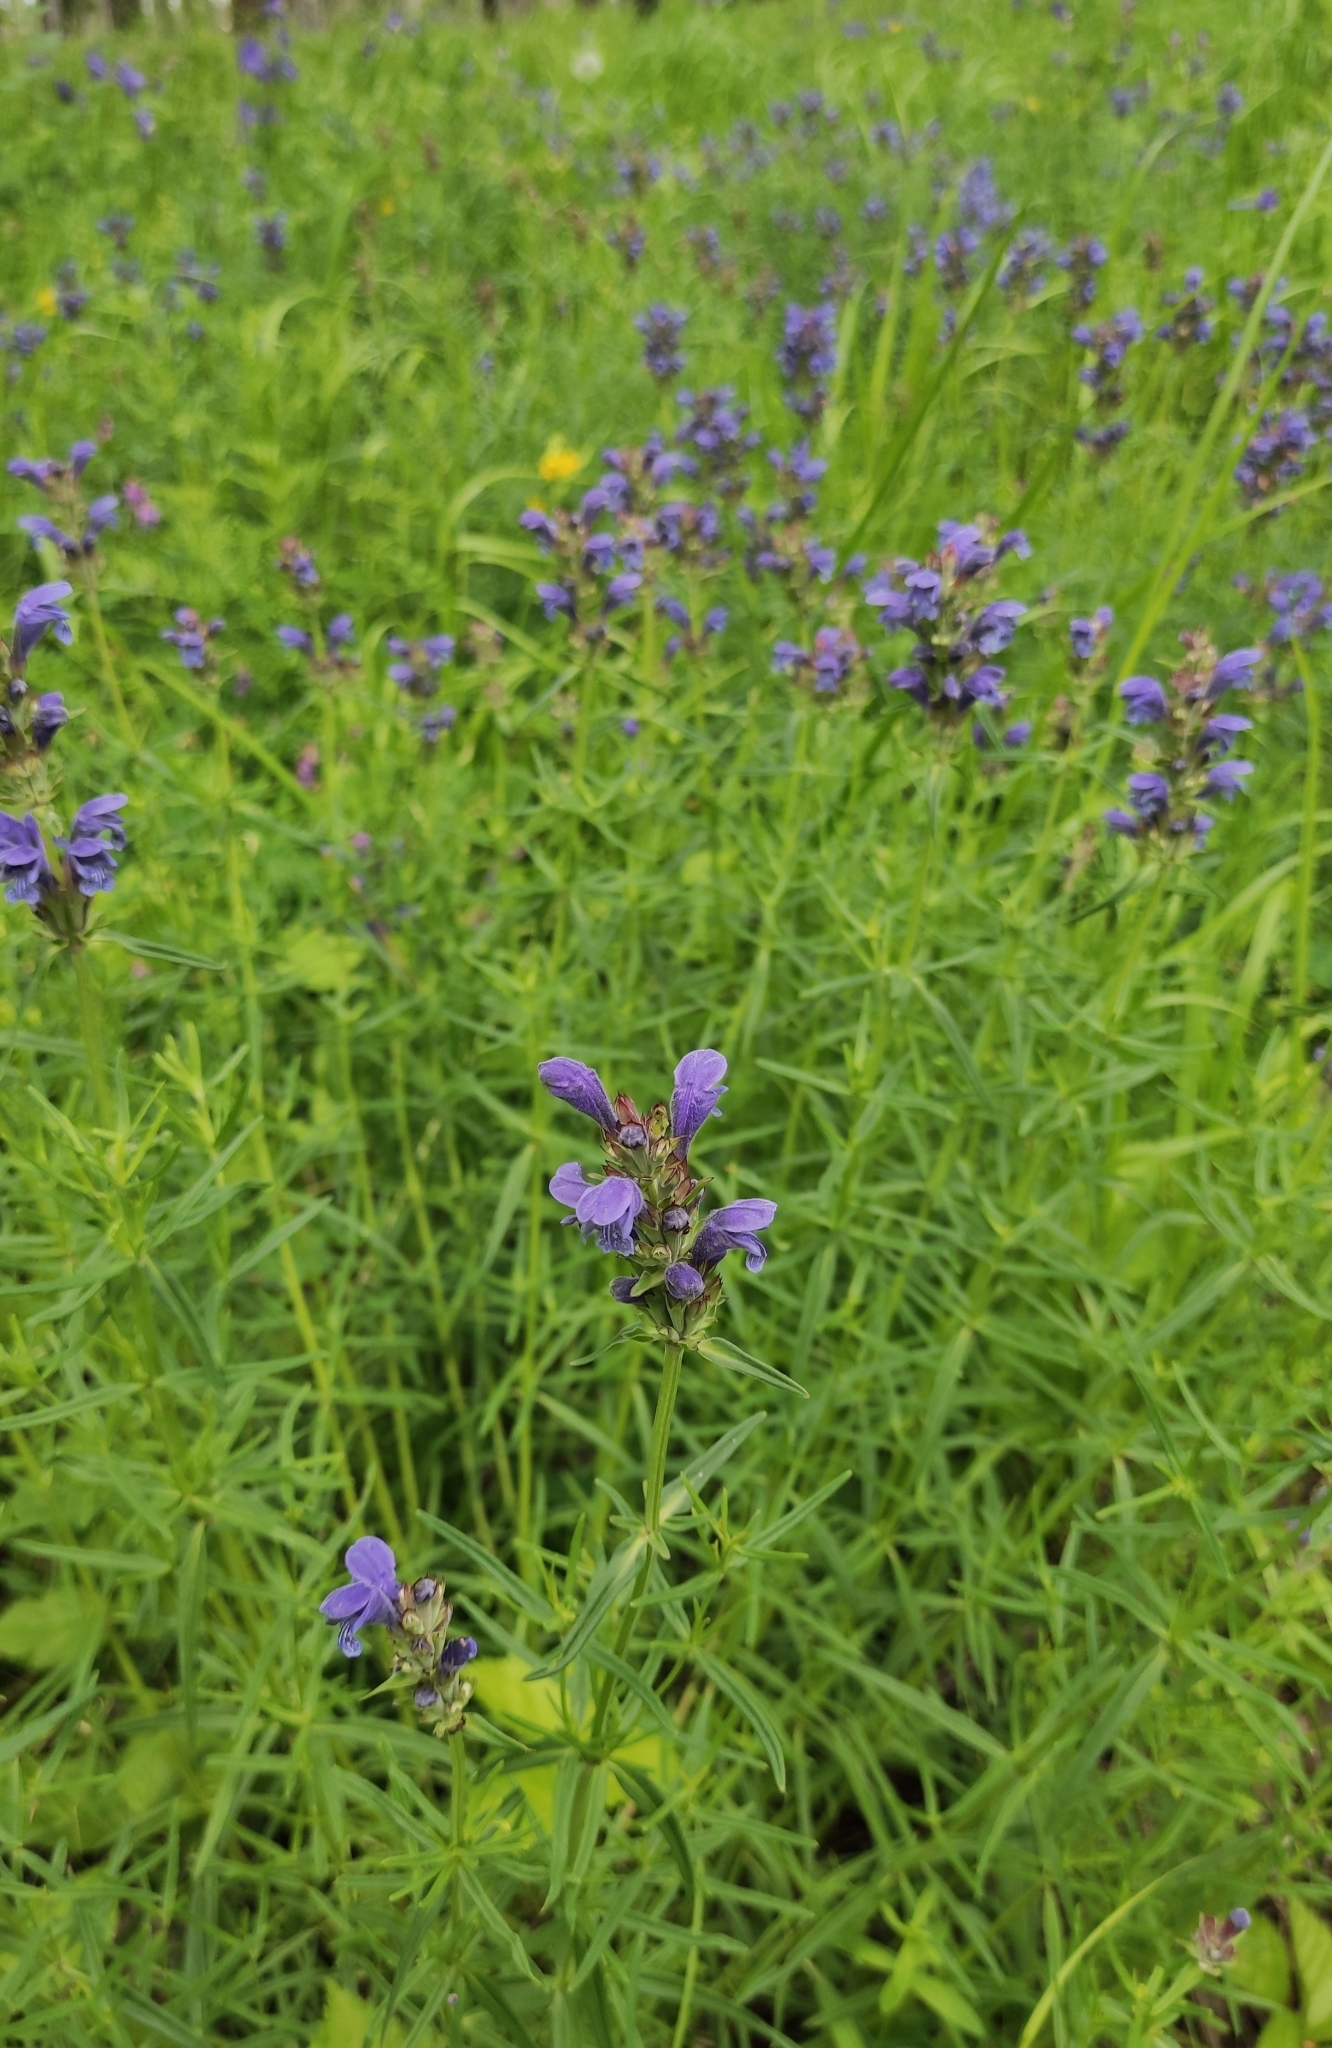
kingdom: Plantae
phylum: Tracheophyta
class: Magnoliopsida
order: Lamiales
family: Lamiaceae
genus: Dracocephalum
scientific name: Dracocephalum ruyschiana
